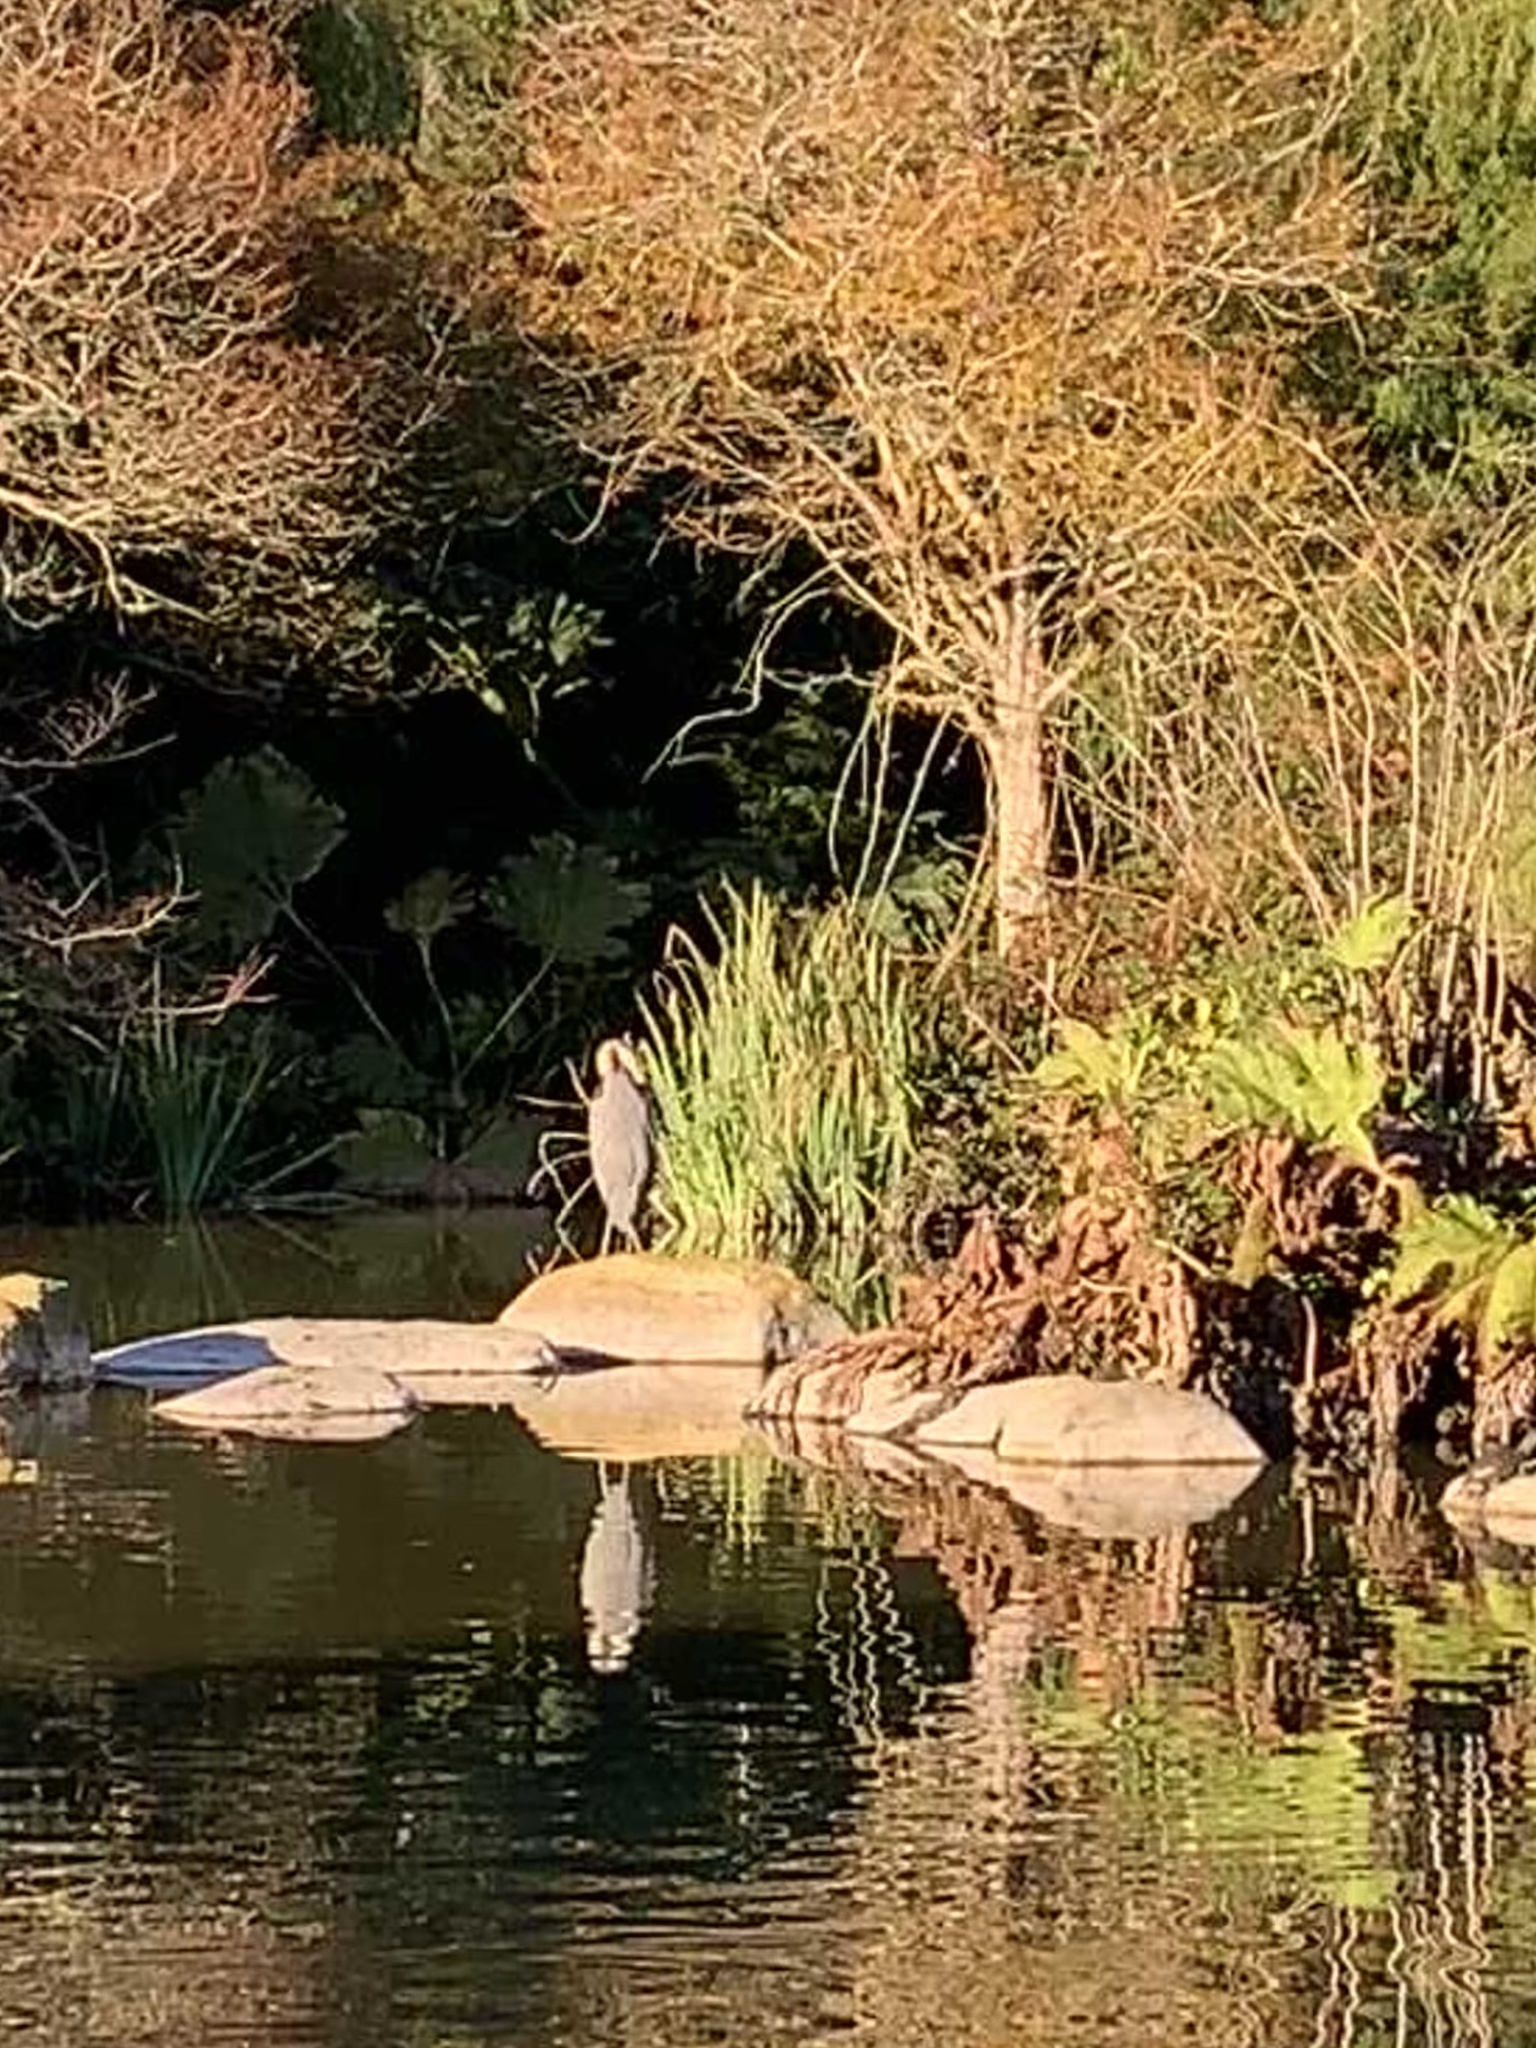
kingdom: Animalia
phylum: Chordata
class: Aves
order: Pelecaniformes
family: Ardeidae
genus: Ardea
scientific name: Ardea herodias
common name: Great blue heron
